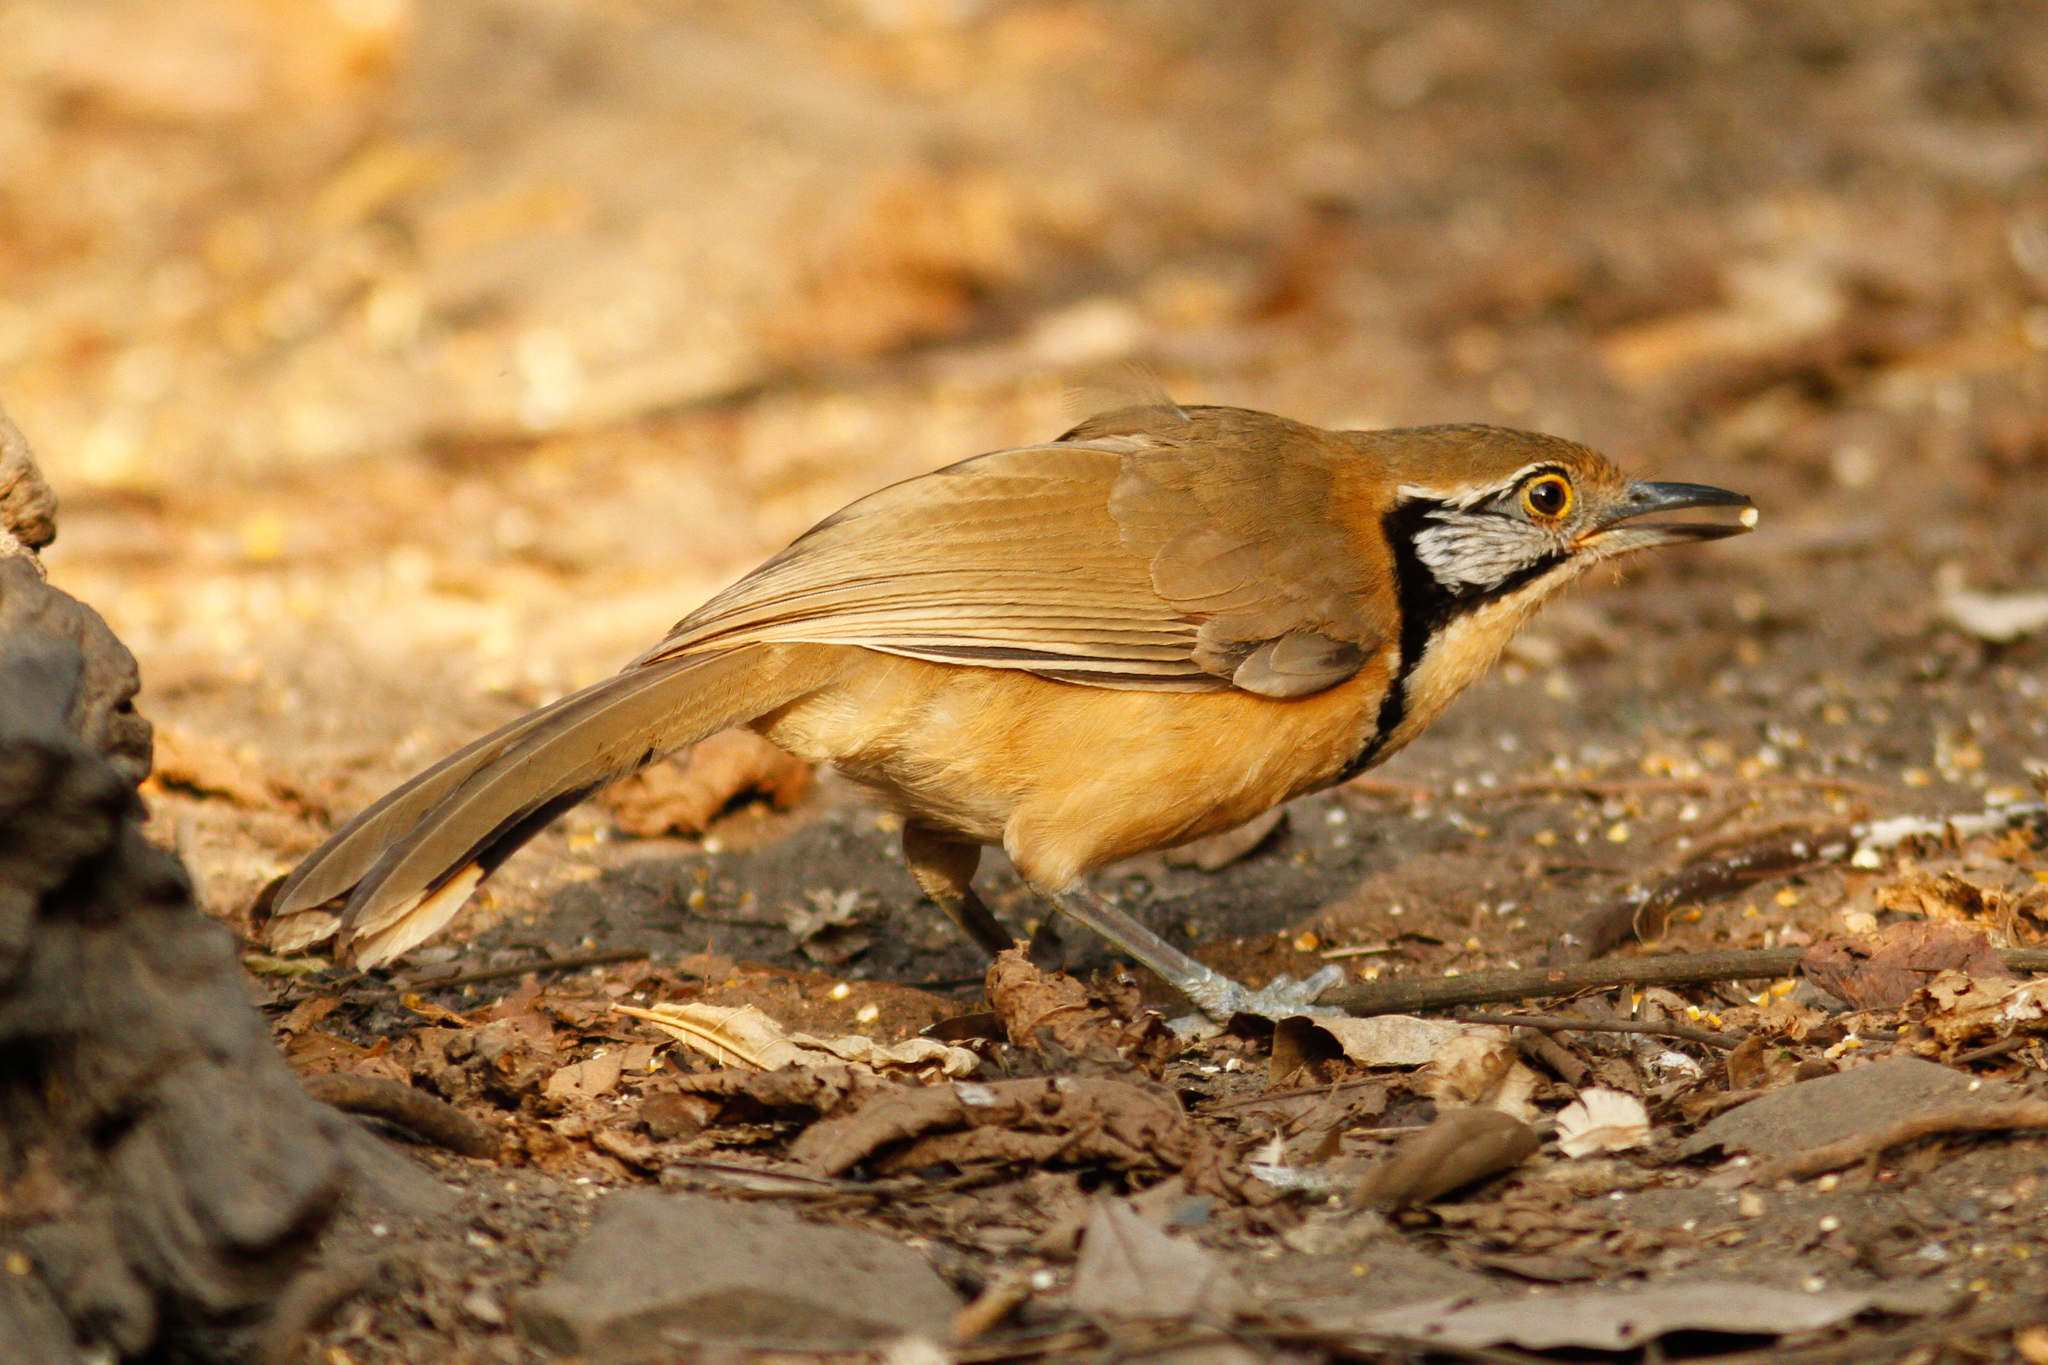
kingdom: Animalia
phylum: Chordata
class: Aves
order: Passeriformes
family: Leiothrichidae
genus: Garrulax
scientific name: Garrulax pectoralis
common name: Greater necklaced laughingthrush
